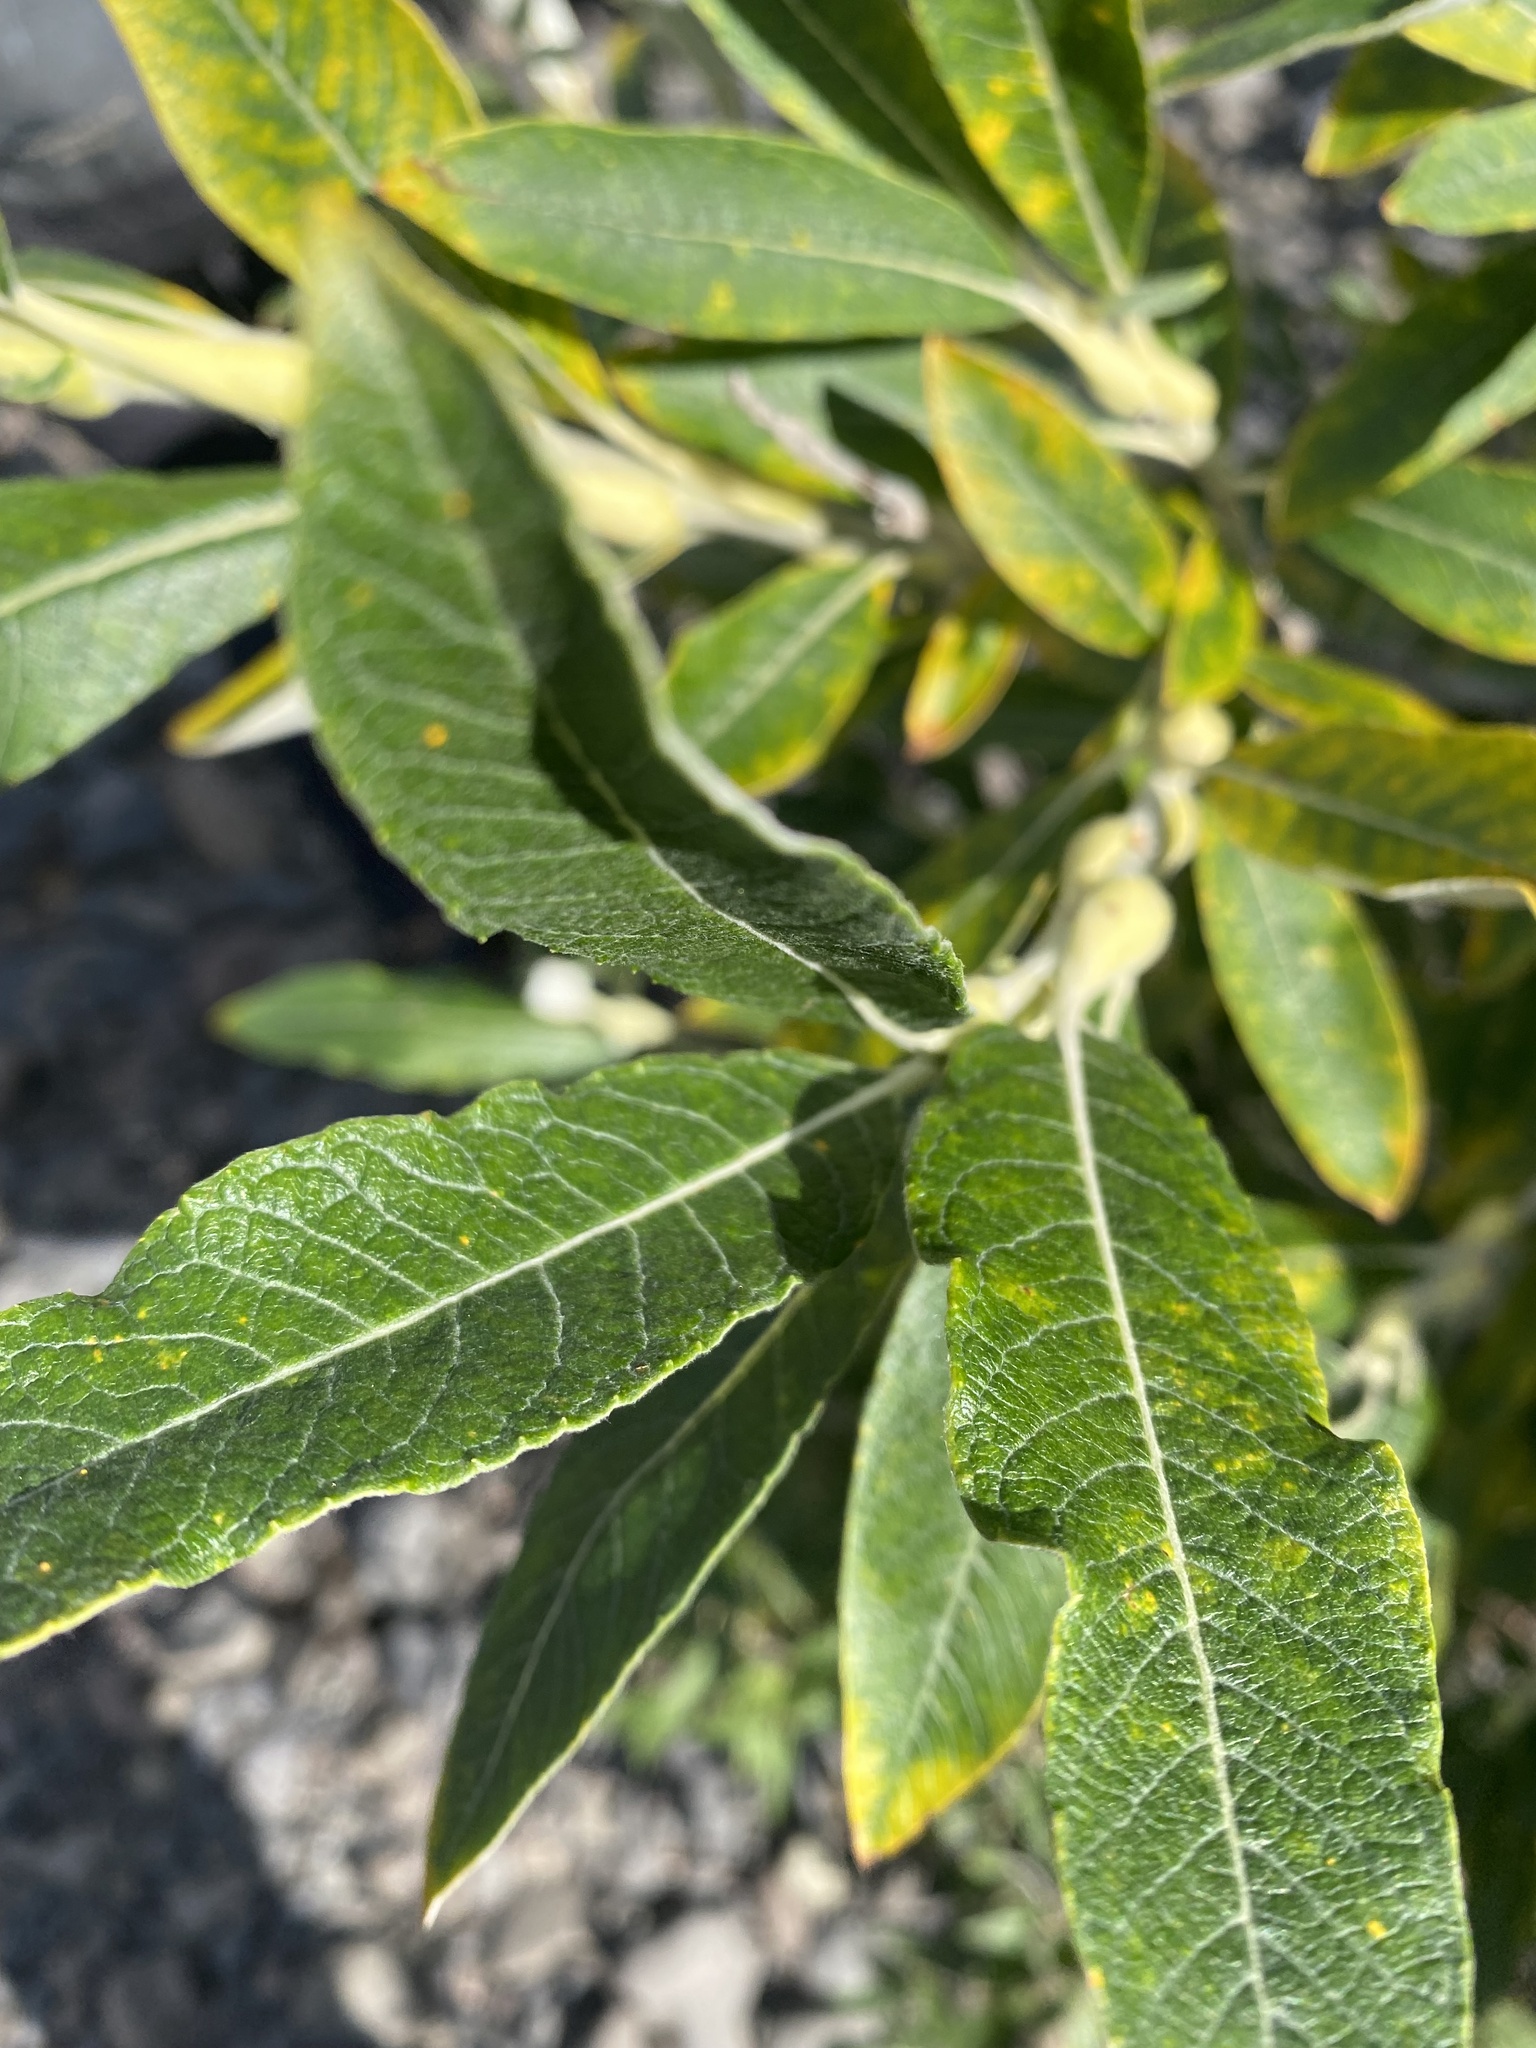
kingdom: Plantae
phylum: Tracheophyta
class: Magnoliopsida
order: Malpighiales
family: Salicaceae
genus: Salix
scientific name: Salix alaxensis
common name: Feltleaf willow
